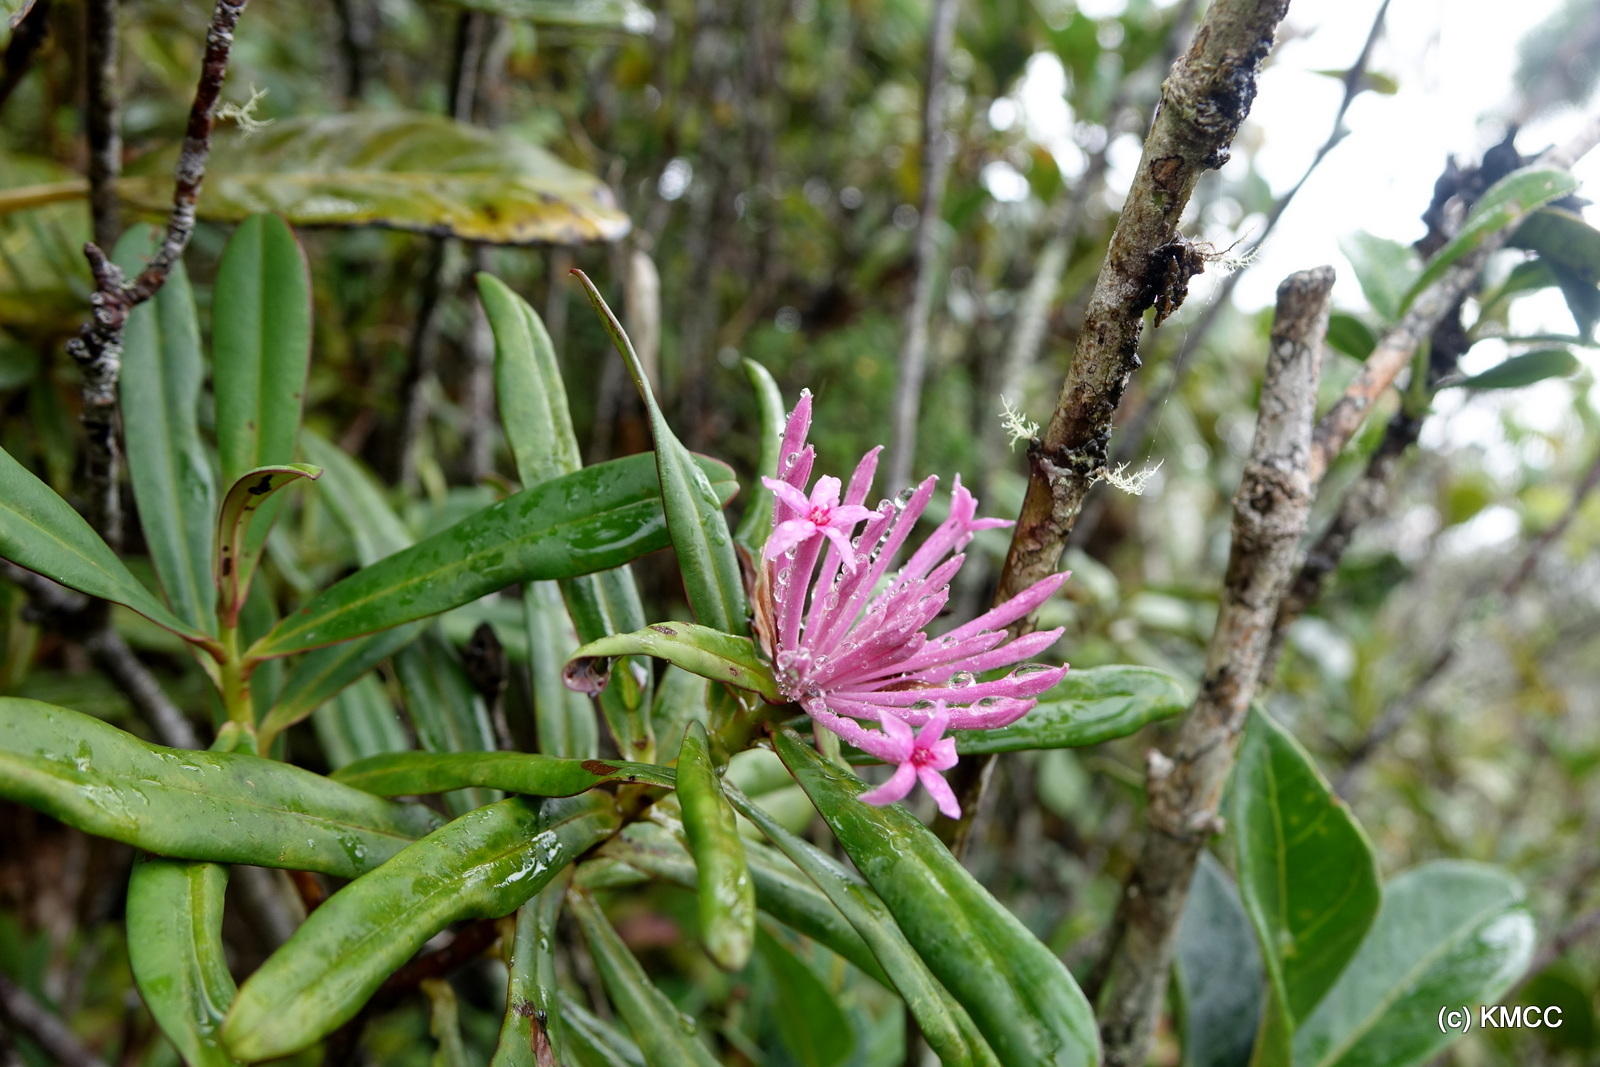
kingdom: Plantae
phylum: Tracheophyta
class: Magnoliopsida
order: Malvales
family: Thymelaeaceae
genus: Atemnosiphon
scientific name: Atemnosiphon coriaceus
